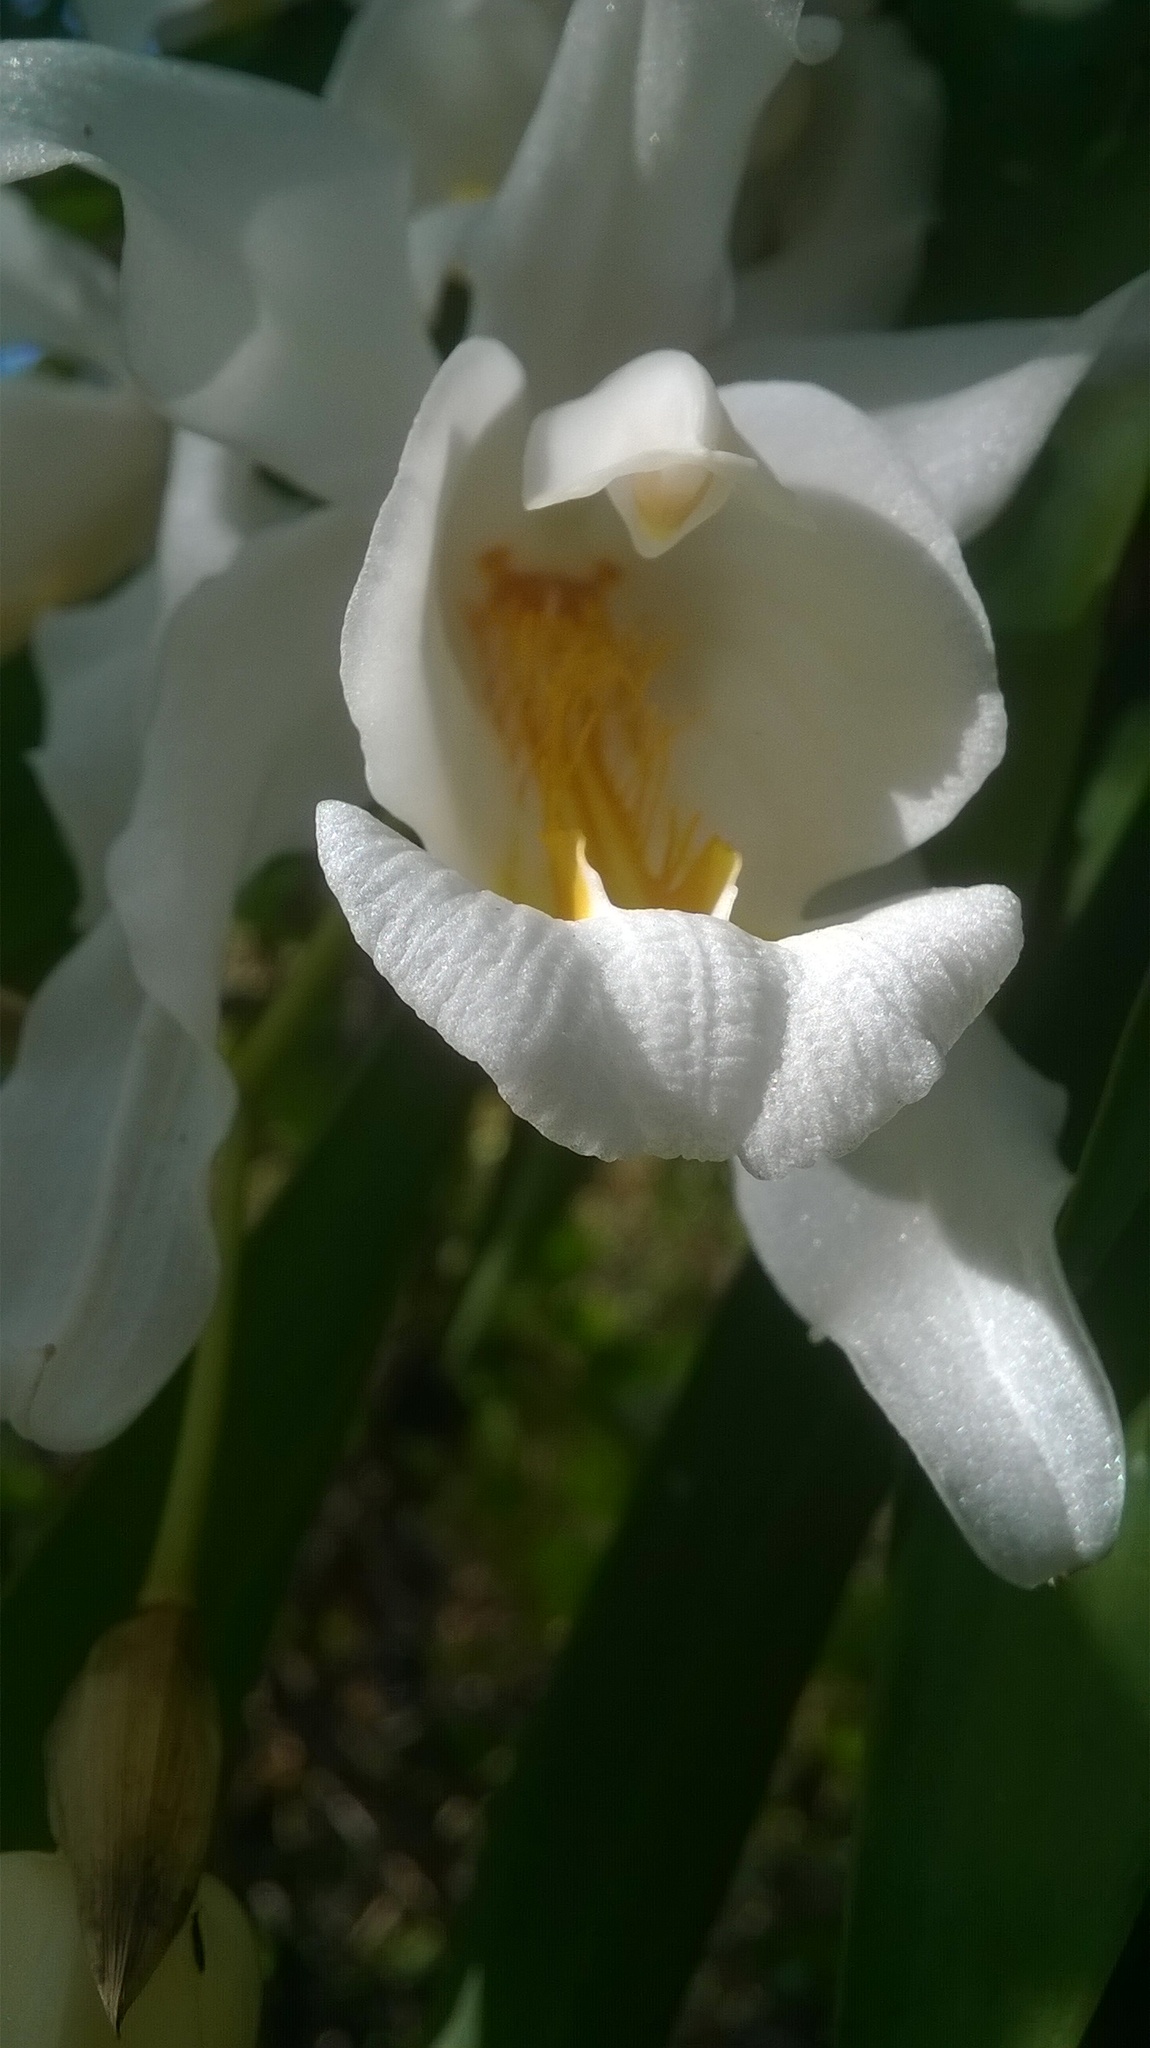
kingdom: Plantae
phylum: Tracheophyta
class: Liliopsida
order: Asparagales
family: Orchidaceae
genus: Coelogyne
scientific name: Coelogyne cristata
